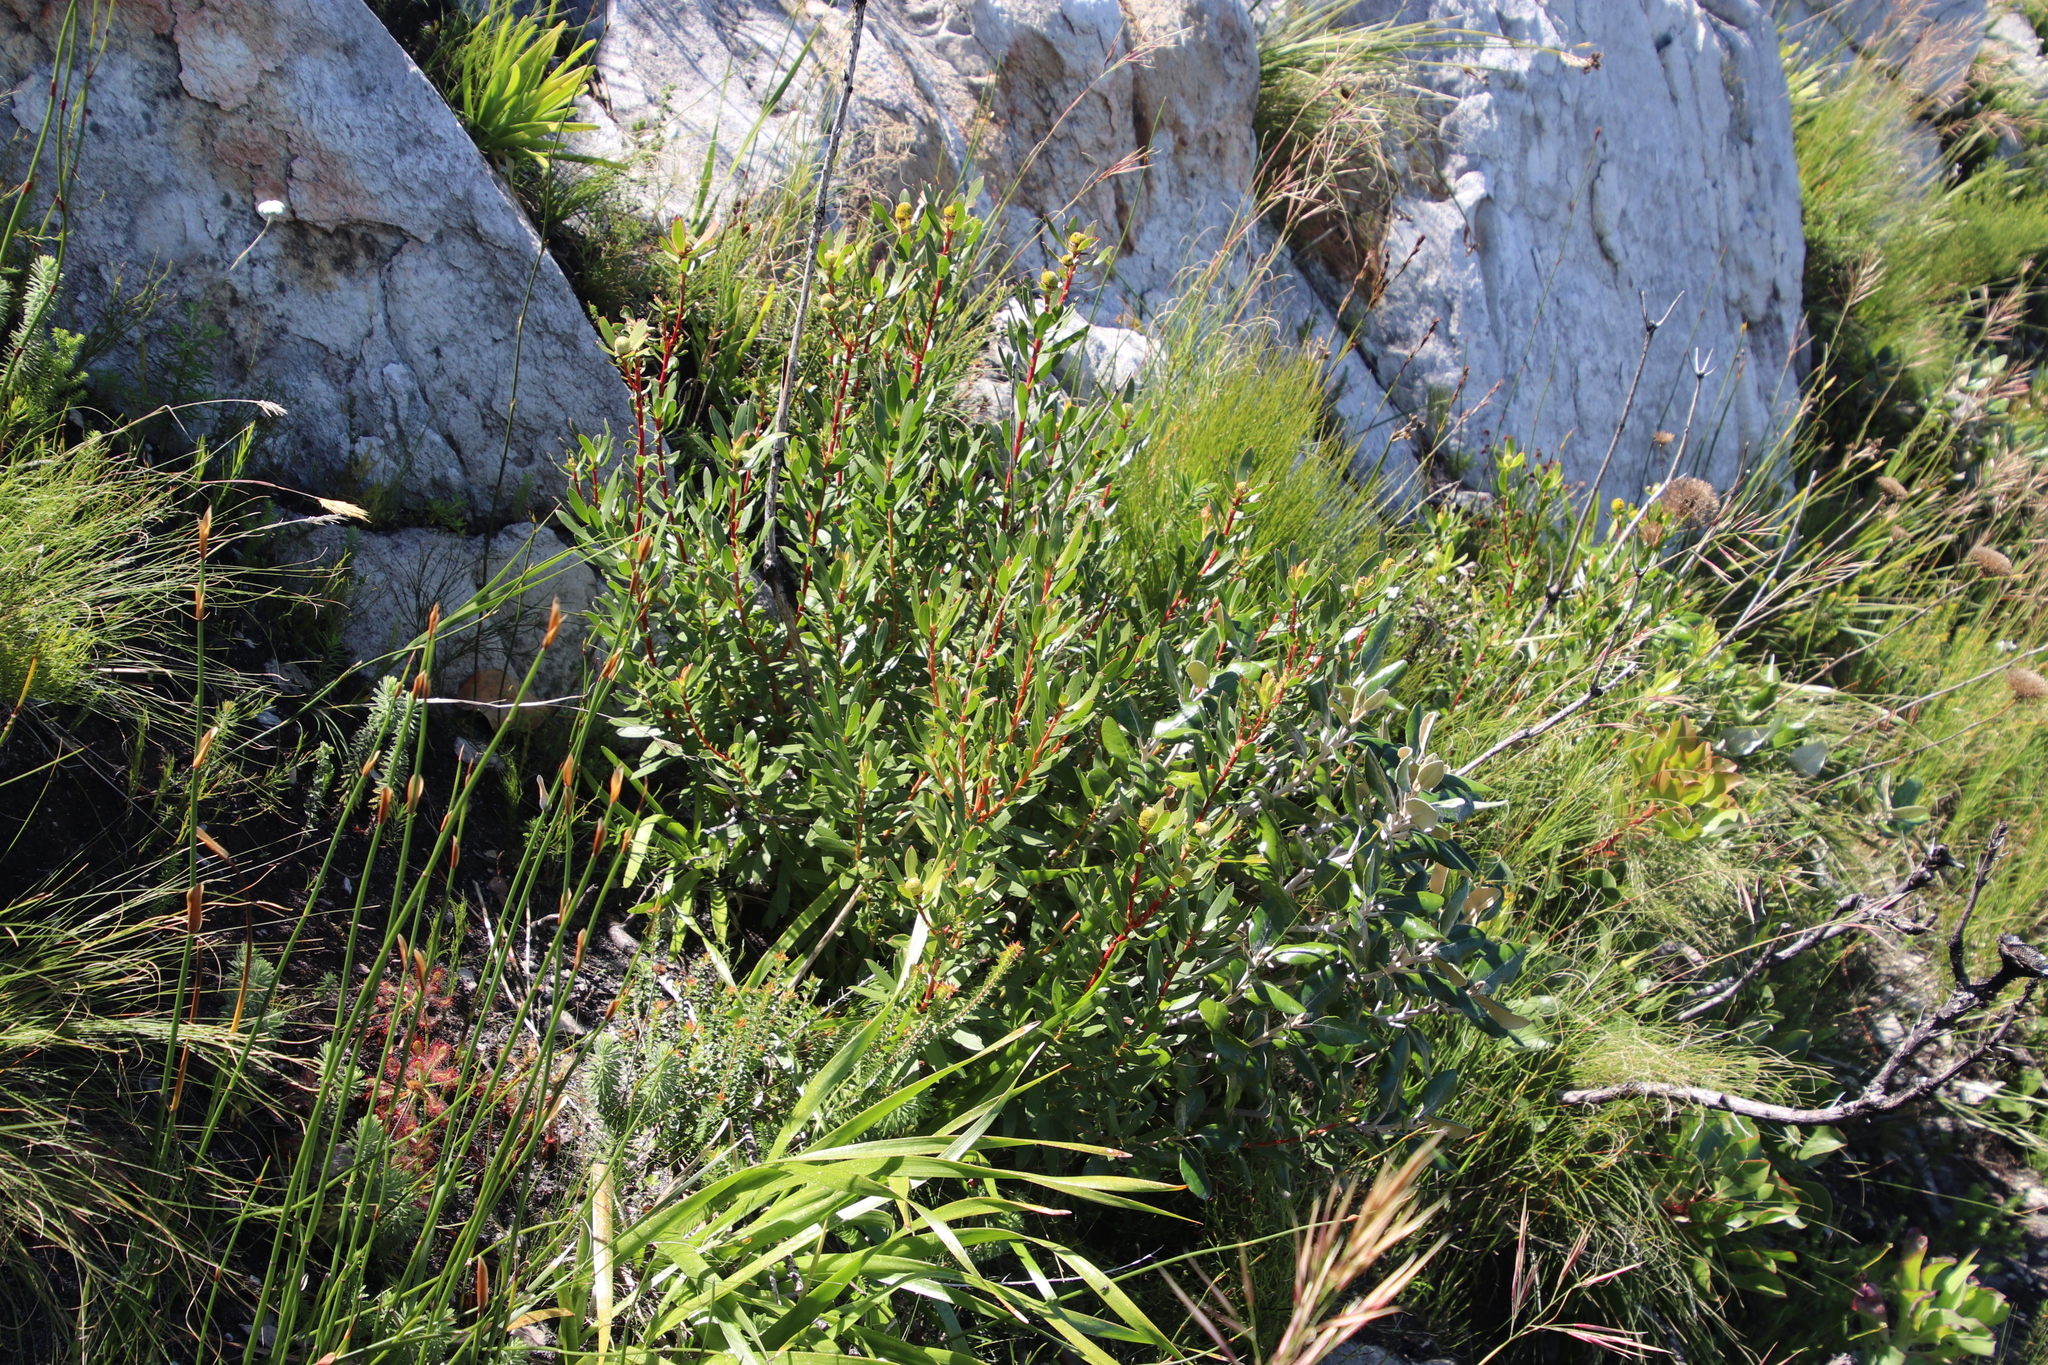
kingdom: Plantae
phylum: Tracheophyta
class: Magnoliopsida
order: Proteales
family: Proteaceae
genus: Leucadendron
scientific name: Leucadendron spissifolium
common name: Spear-leaf conebush
